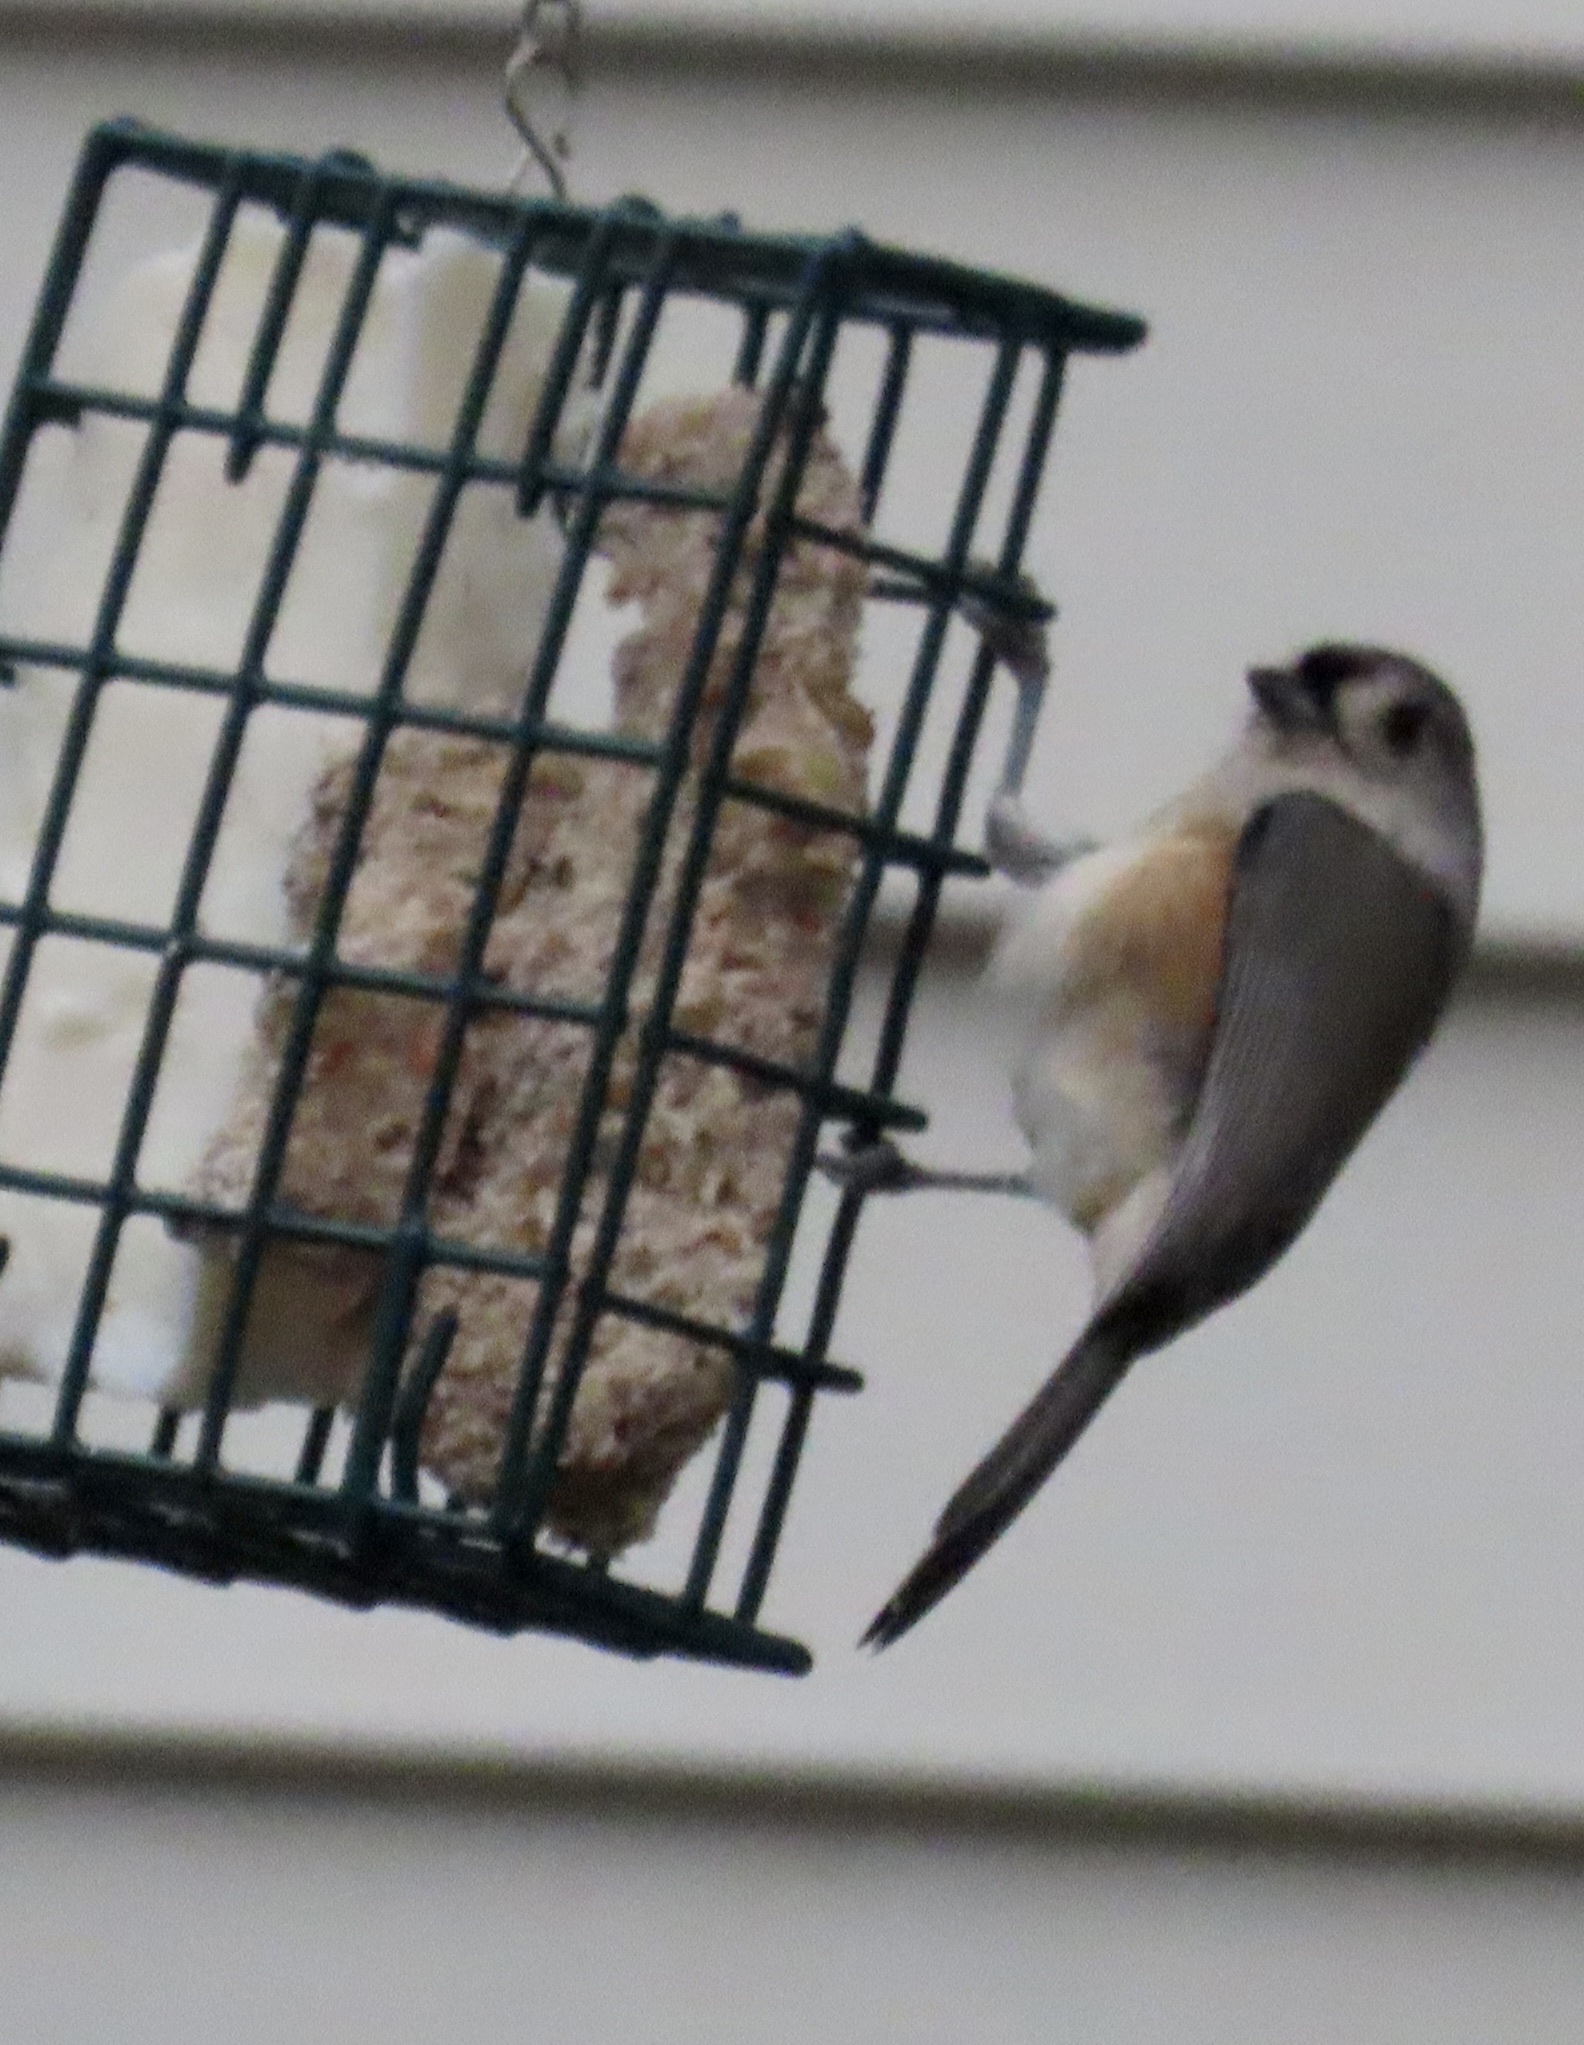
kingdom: Animalia
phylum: Chordata
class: Aves
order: Passeriformes
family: Paridae
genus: Baeolophus
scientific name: Baeolophus bicolor
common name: Tufted titmouse
